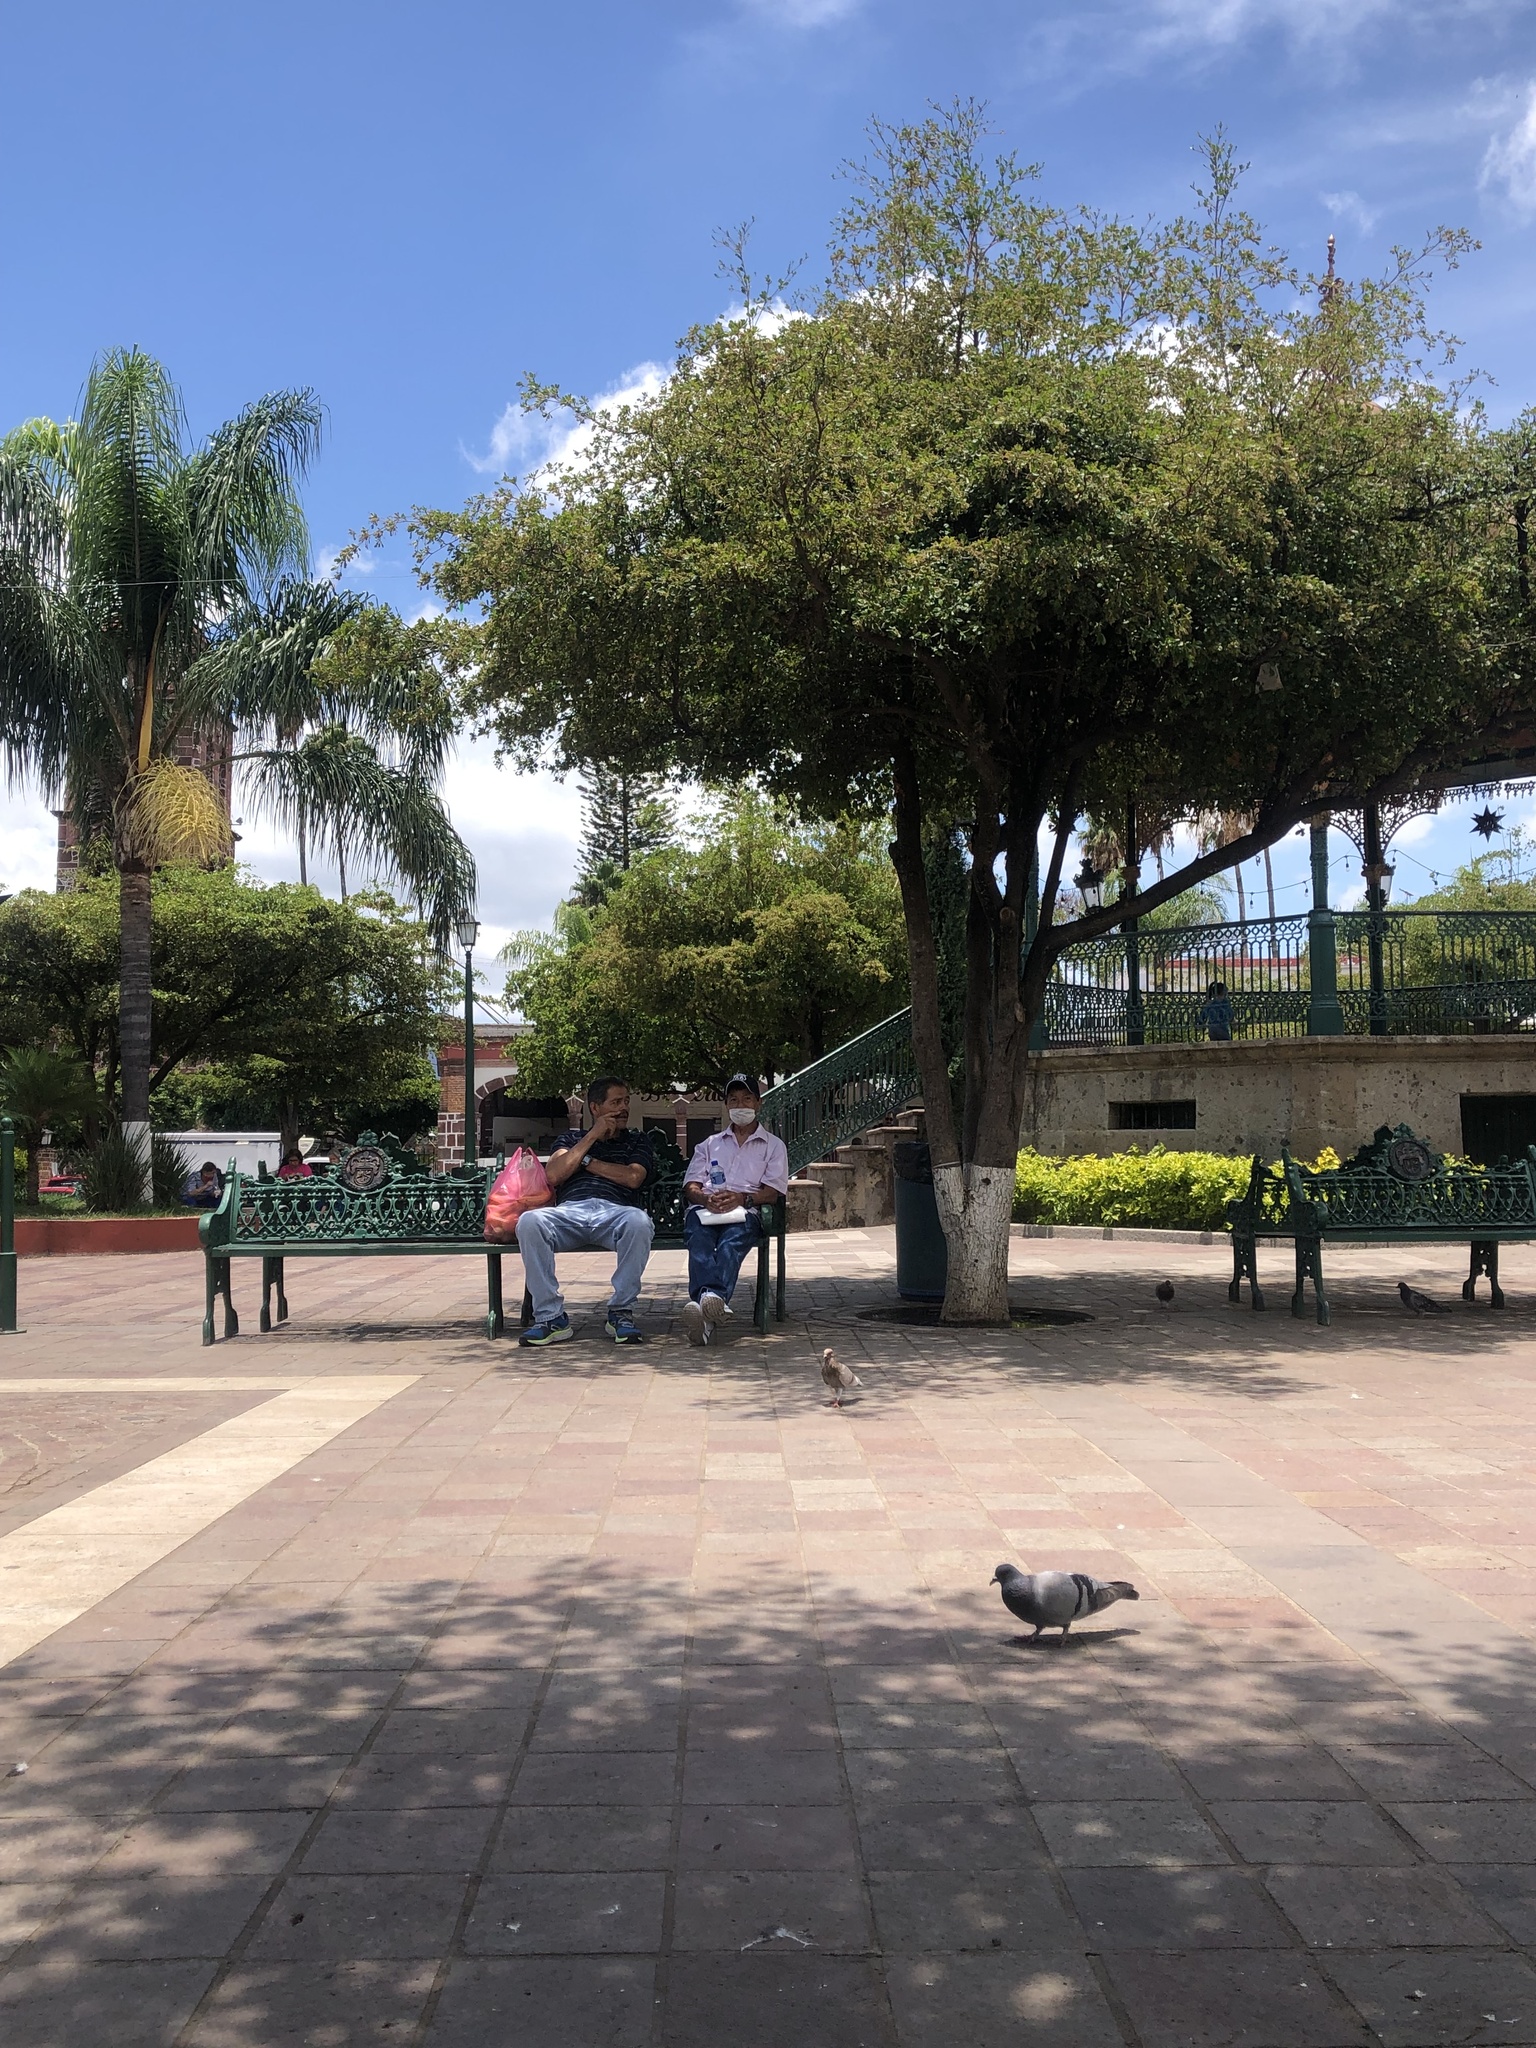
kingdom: Animalia
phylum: Chordata
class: Aves
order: Columbiformes
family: Columbidae
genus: Columba
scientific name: Columba livia
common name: Rock pigeon
